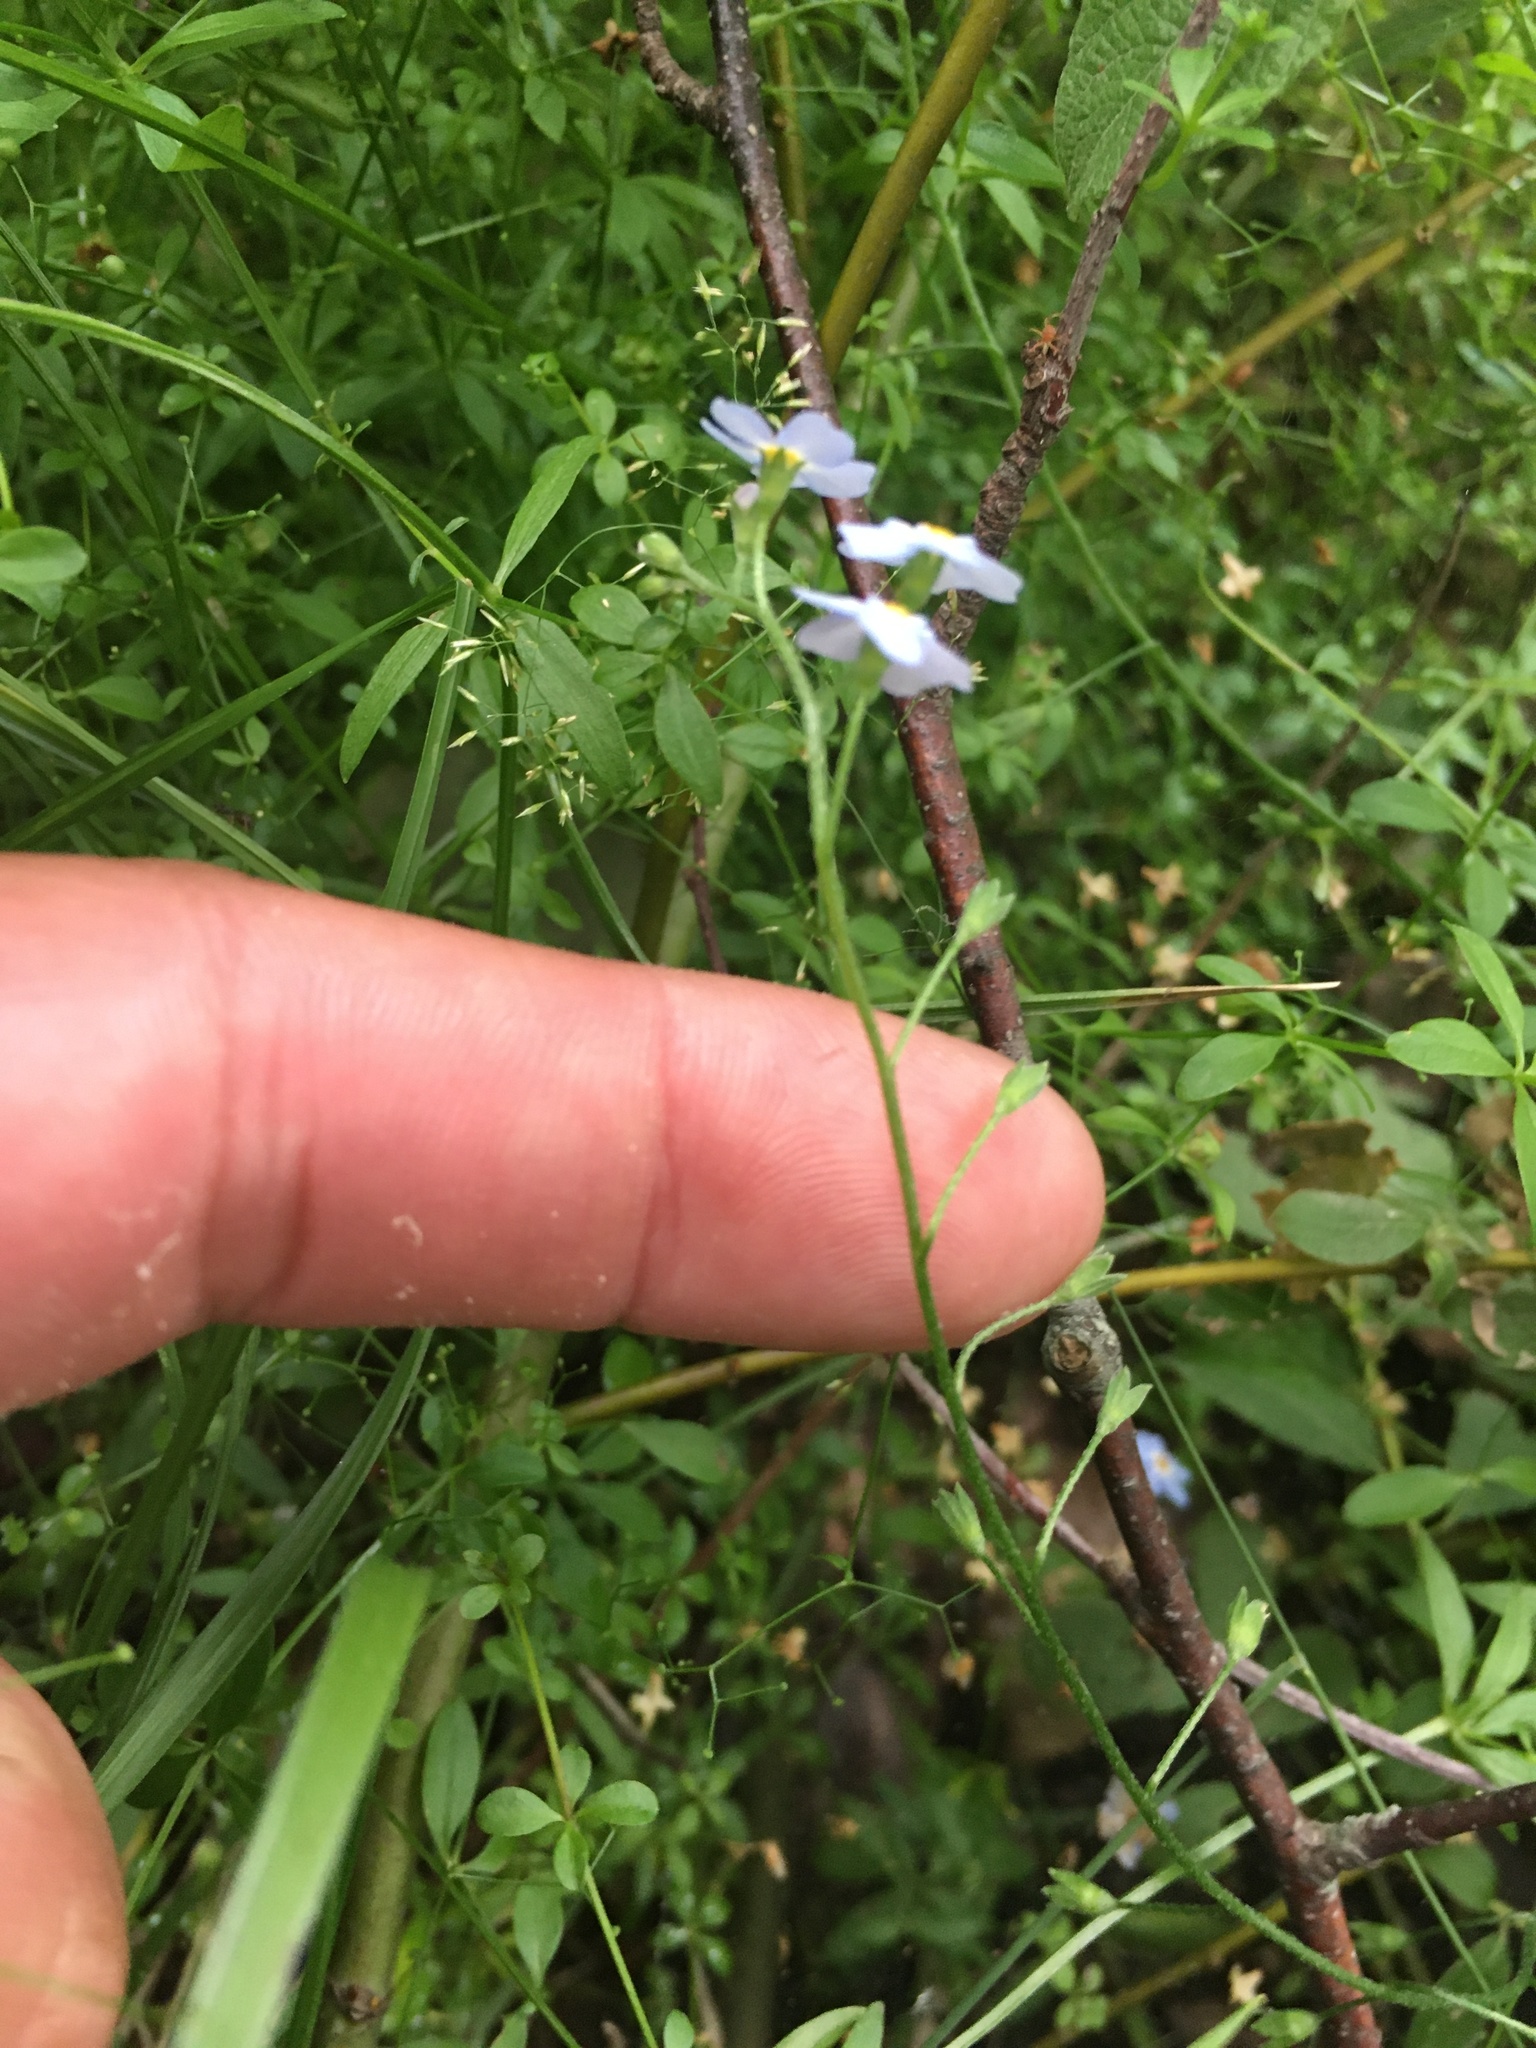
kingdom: Plantae
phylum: Tracheophyta
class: Magnoliopsida
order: Boraginales
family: Boraginaceae
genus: Myosotis
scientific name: Myosotis scorpioides
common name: Water forget-me-not
